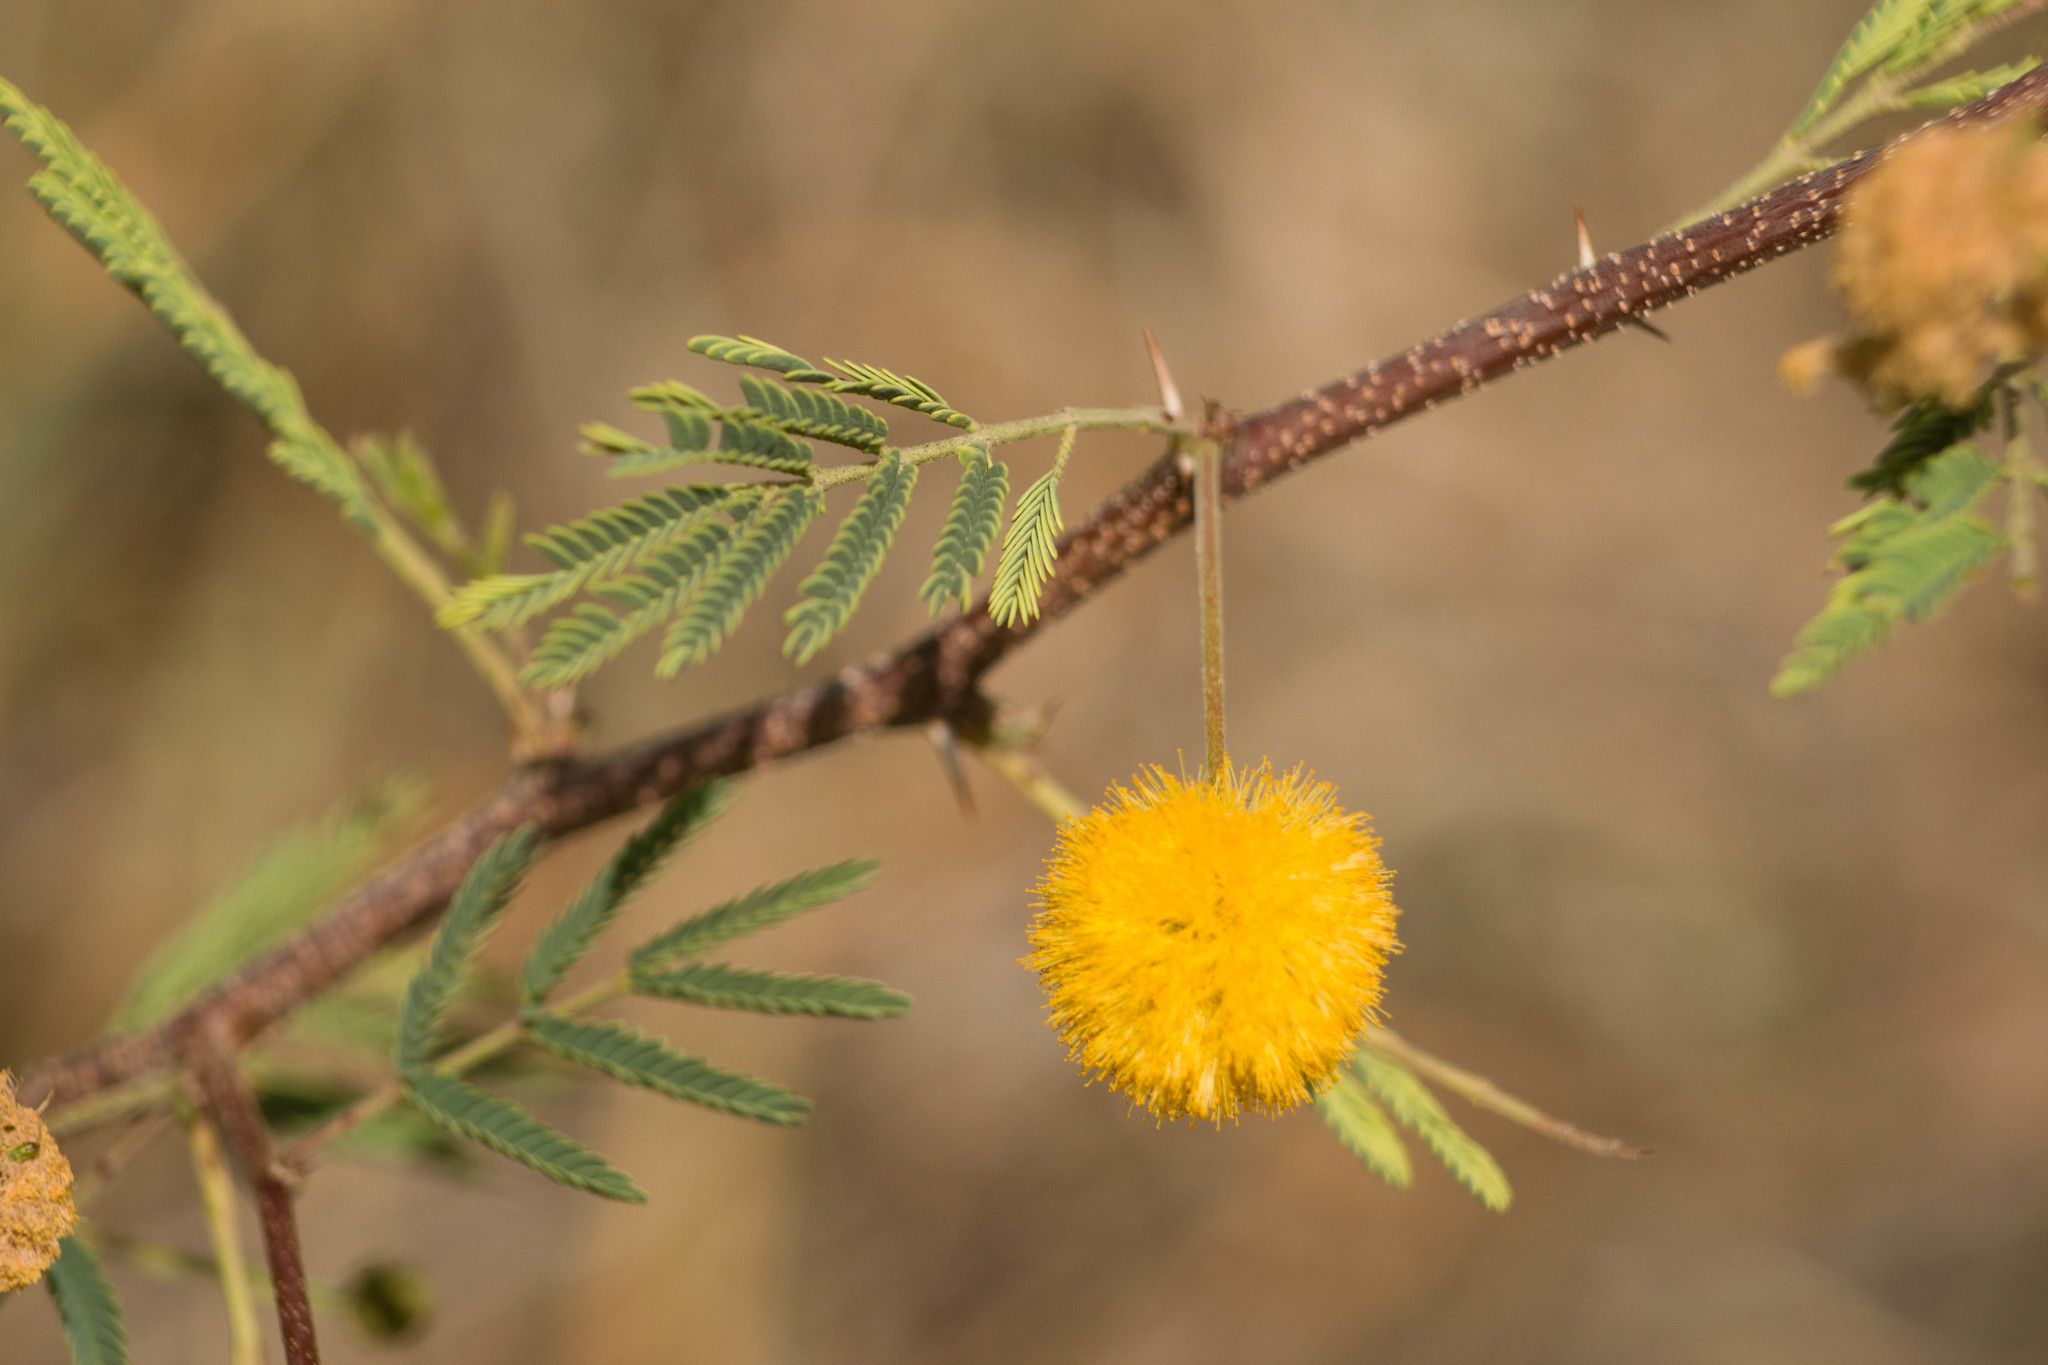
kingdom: Plantae
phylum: Tracheophyta
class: Magnoliopsida
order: Fabales
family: Fabaceae
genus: Vachellia
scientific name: Vachellia farnesiana
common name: Sweet acacia
